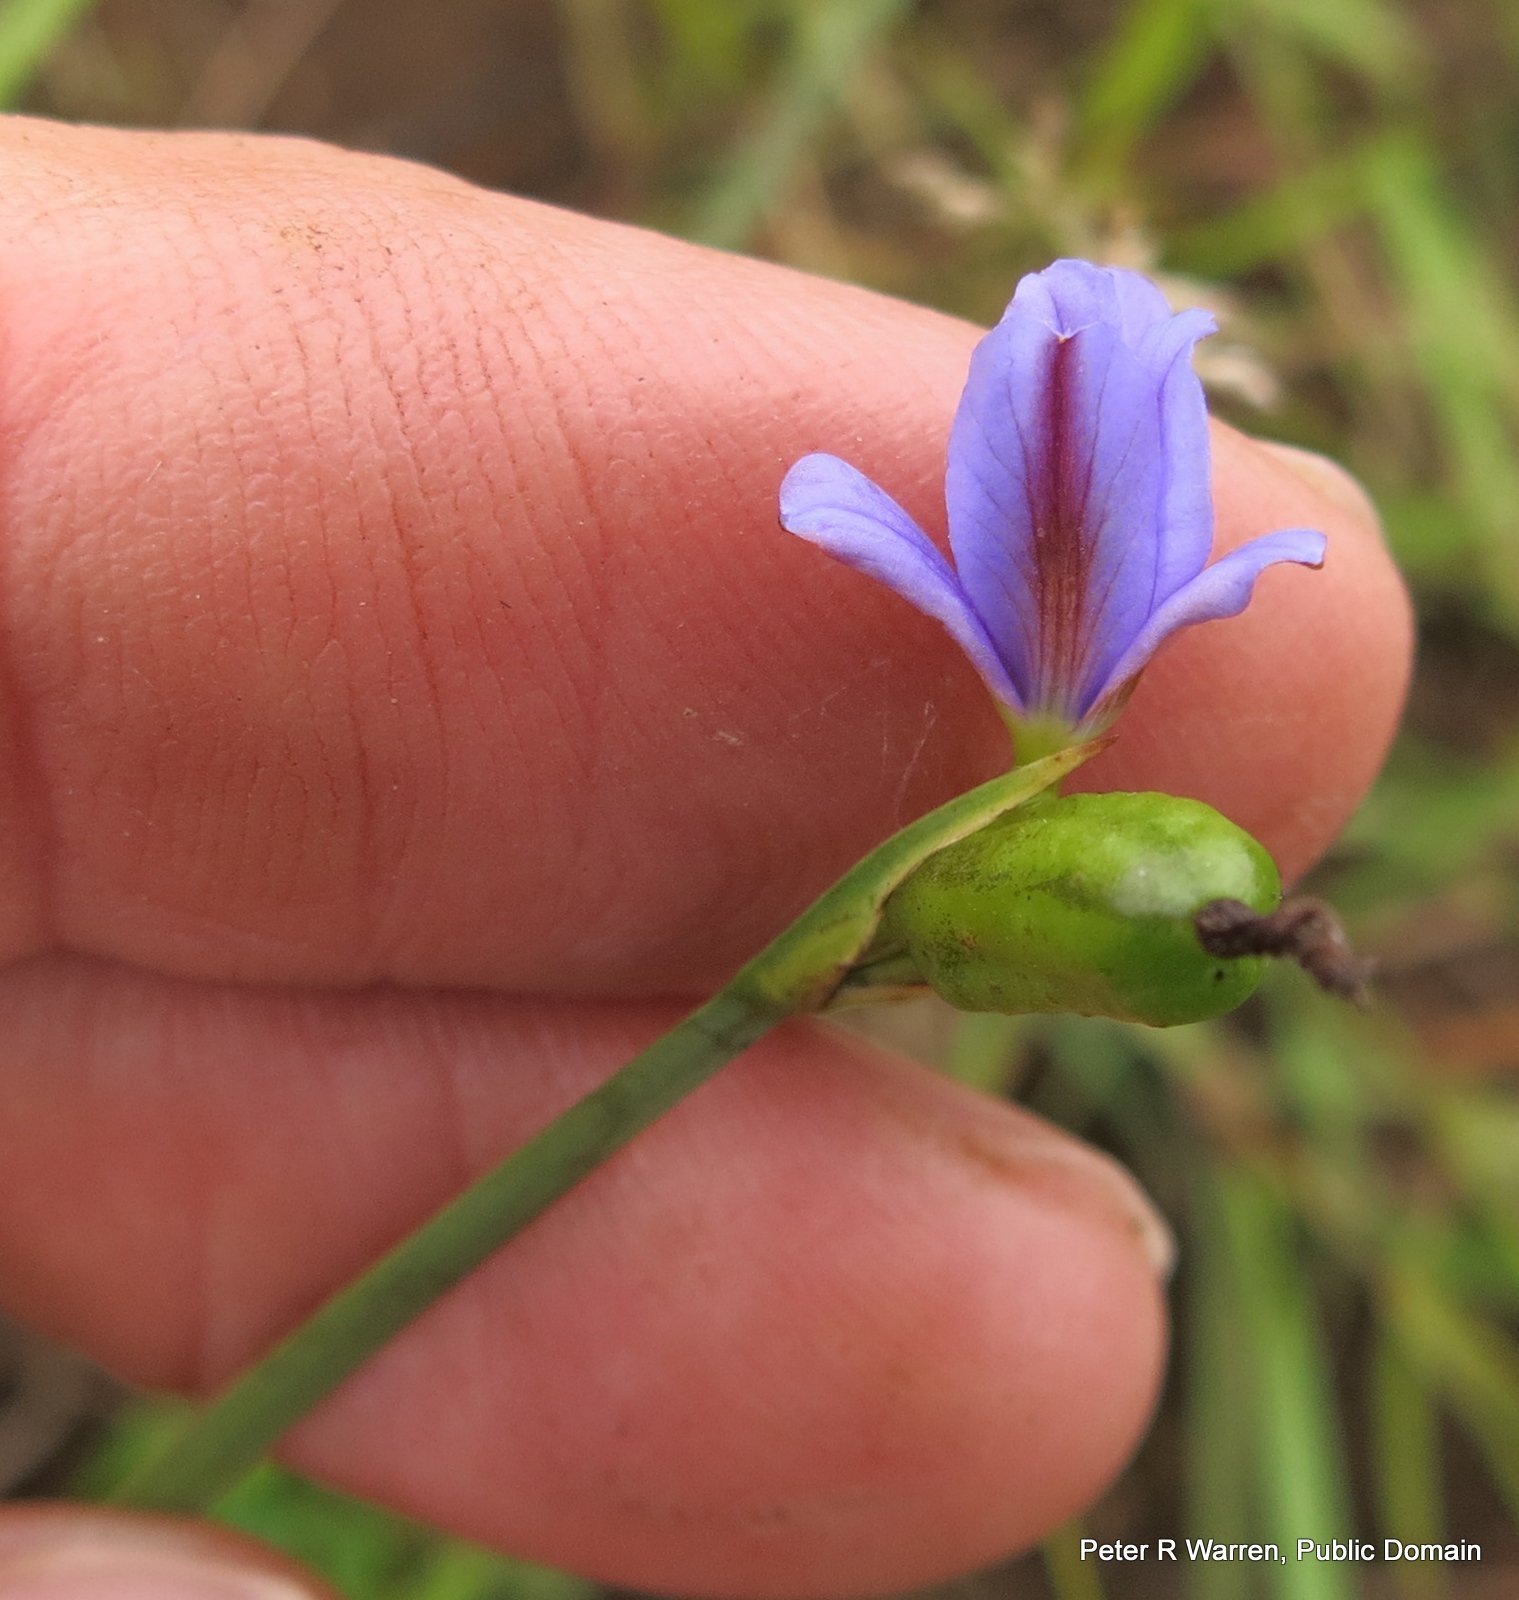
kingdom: Plantae
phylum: Tracheophyta
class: Liliopsida
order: Asparagales
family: Iridaceae
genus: Aristea
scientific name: Aristea abyssinica
